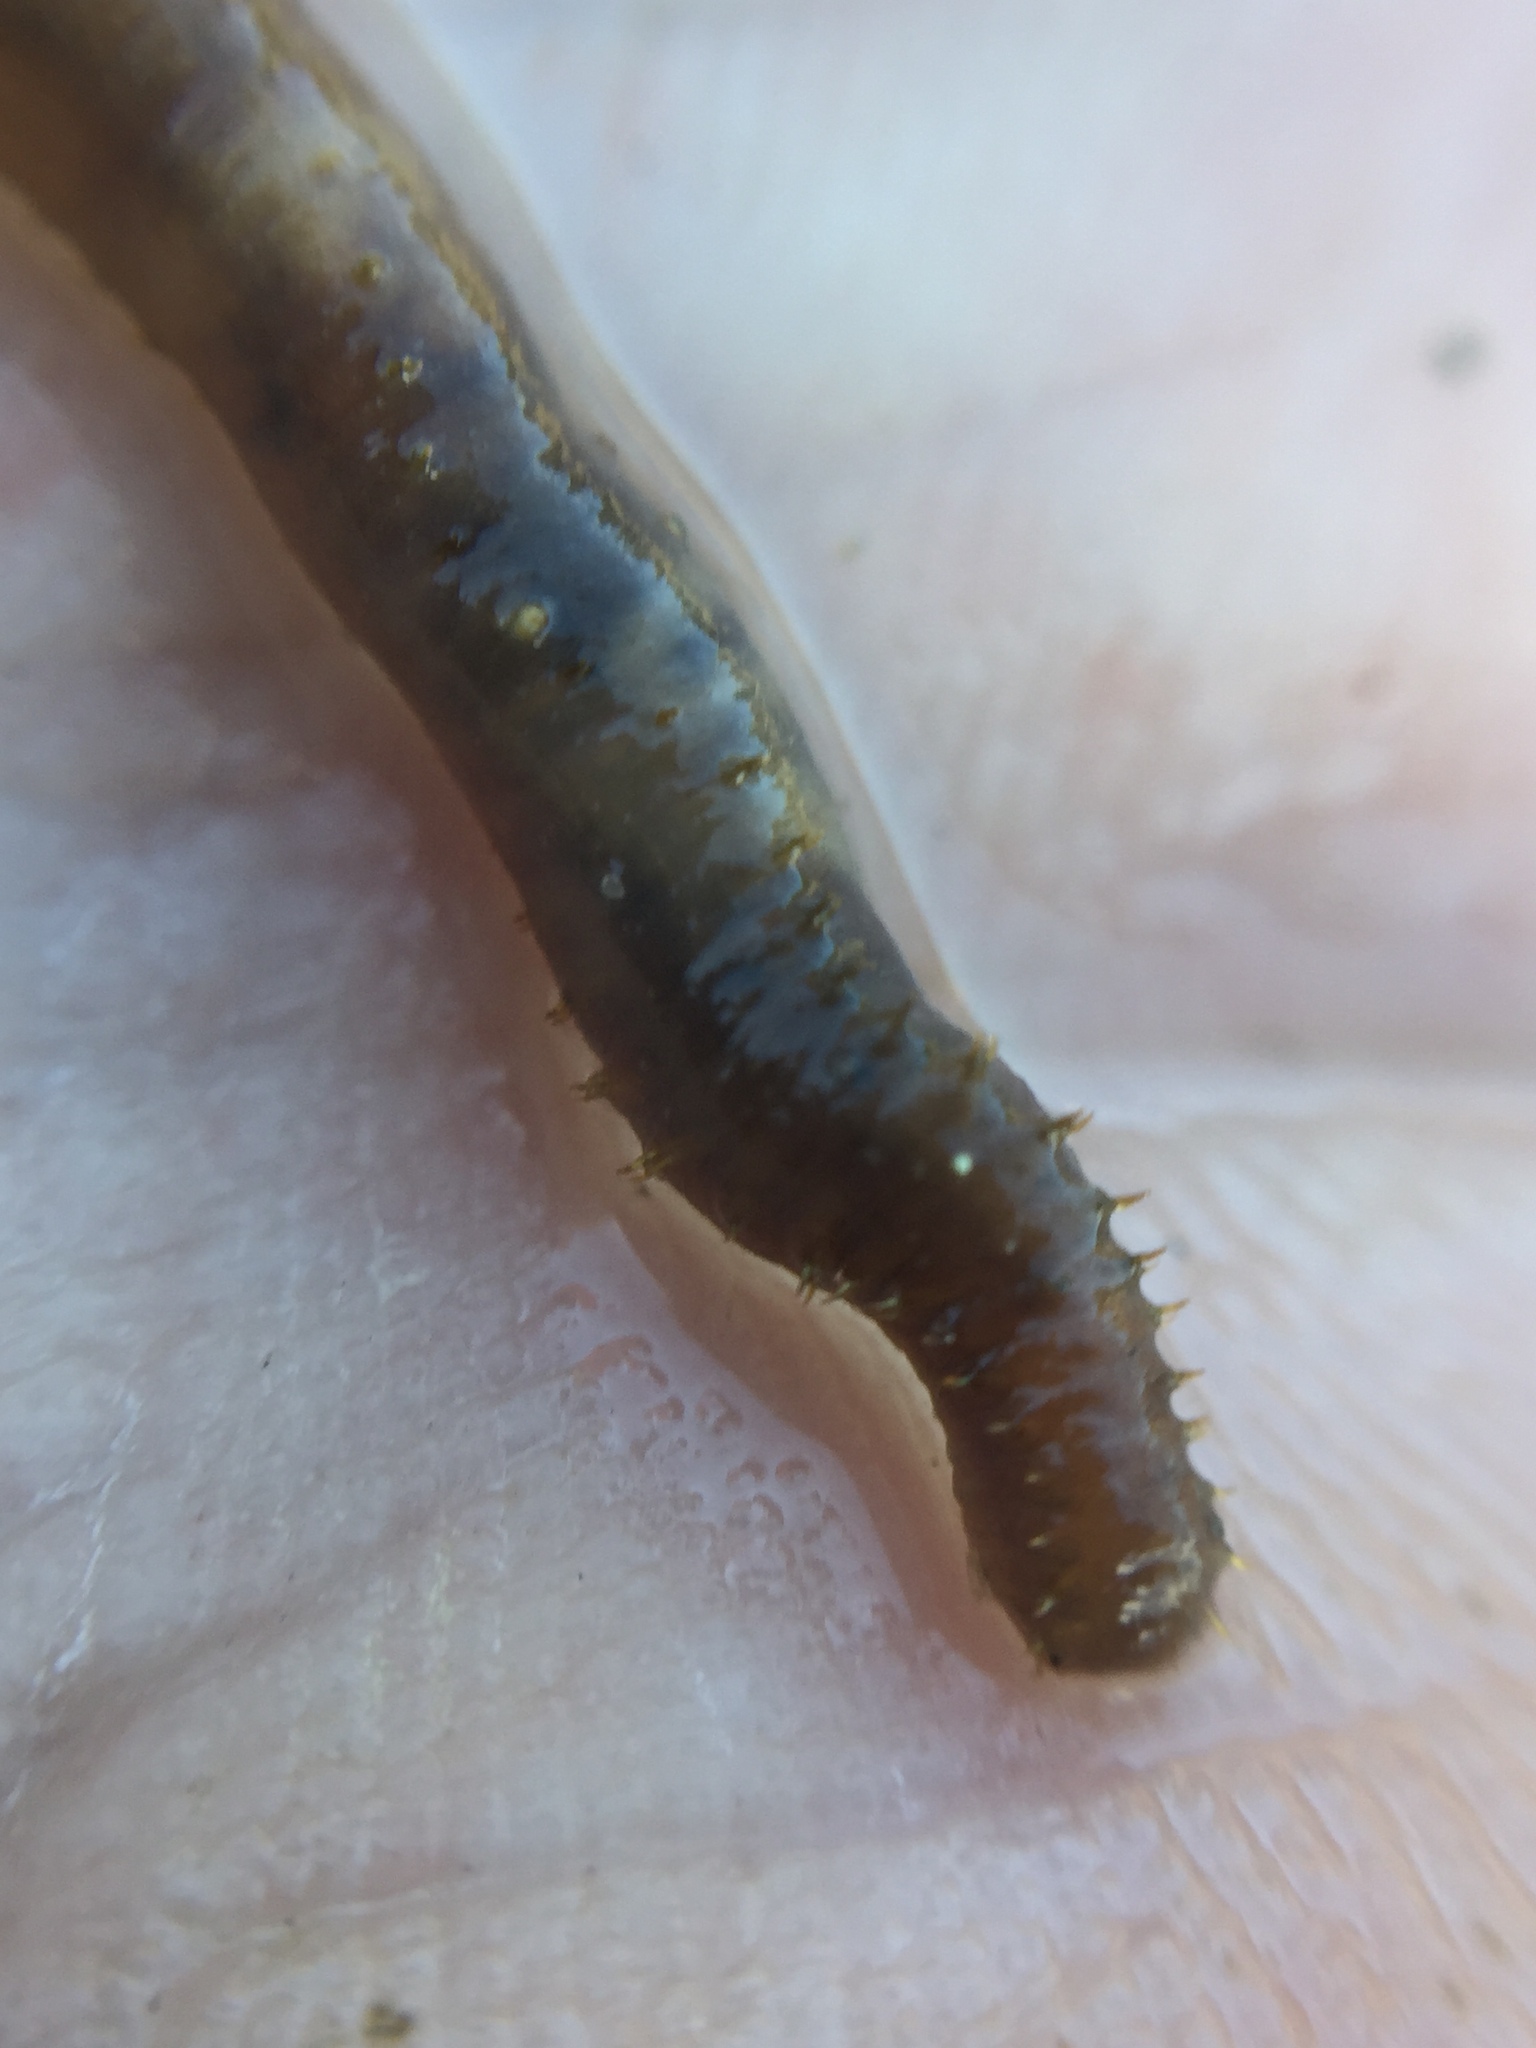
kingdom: Animalia
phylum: Annelida
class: Polychaeta
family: Flabelligeridae
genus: Daylithos
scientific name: Daylithos dieteri
